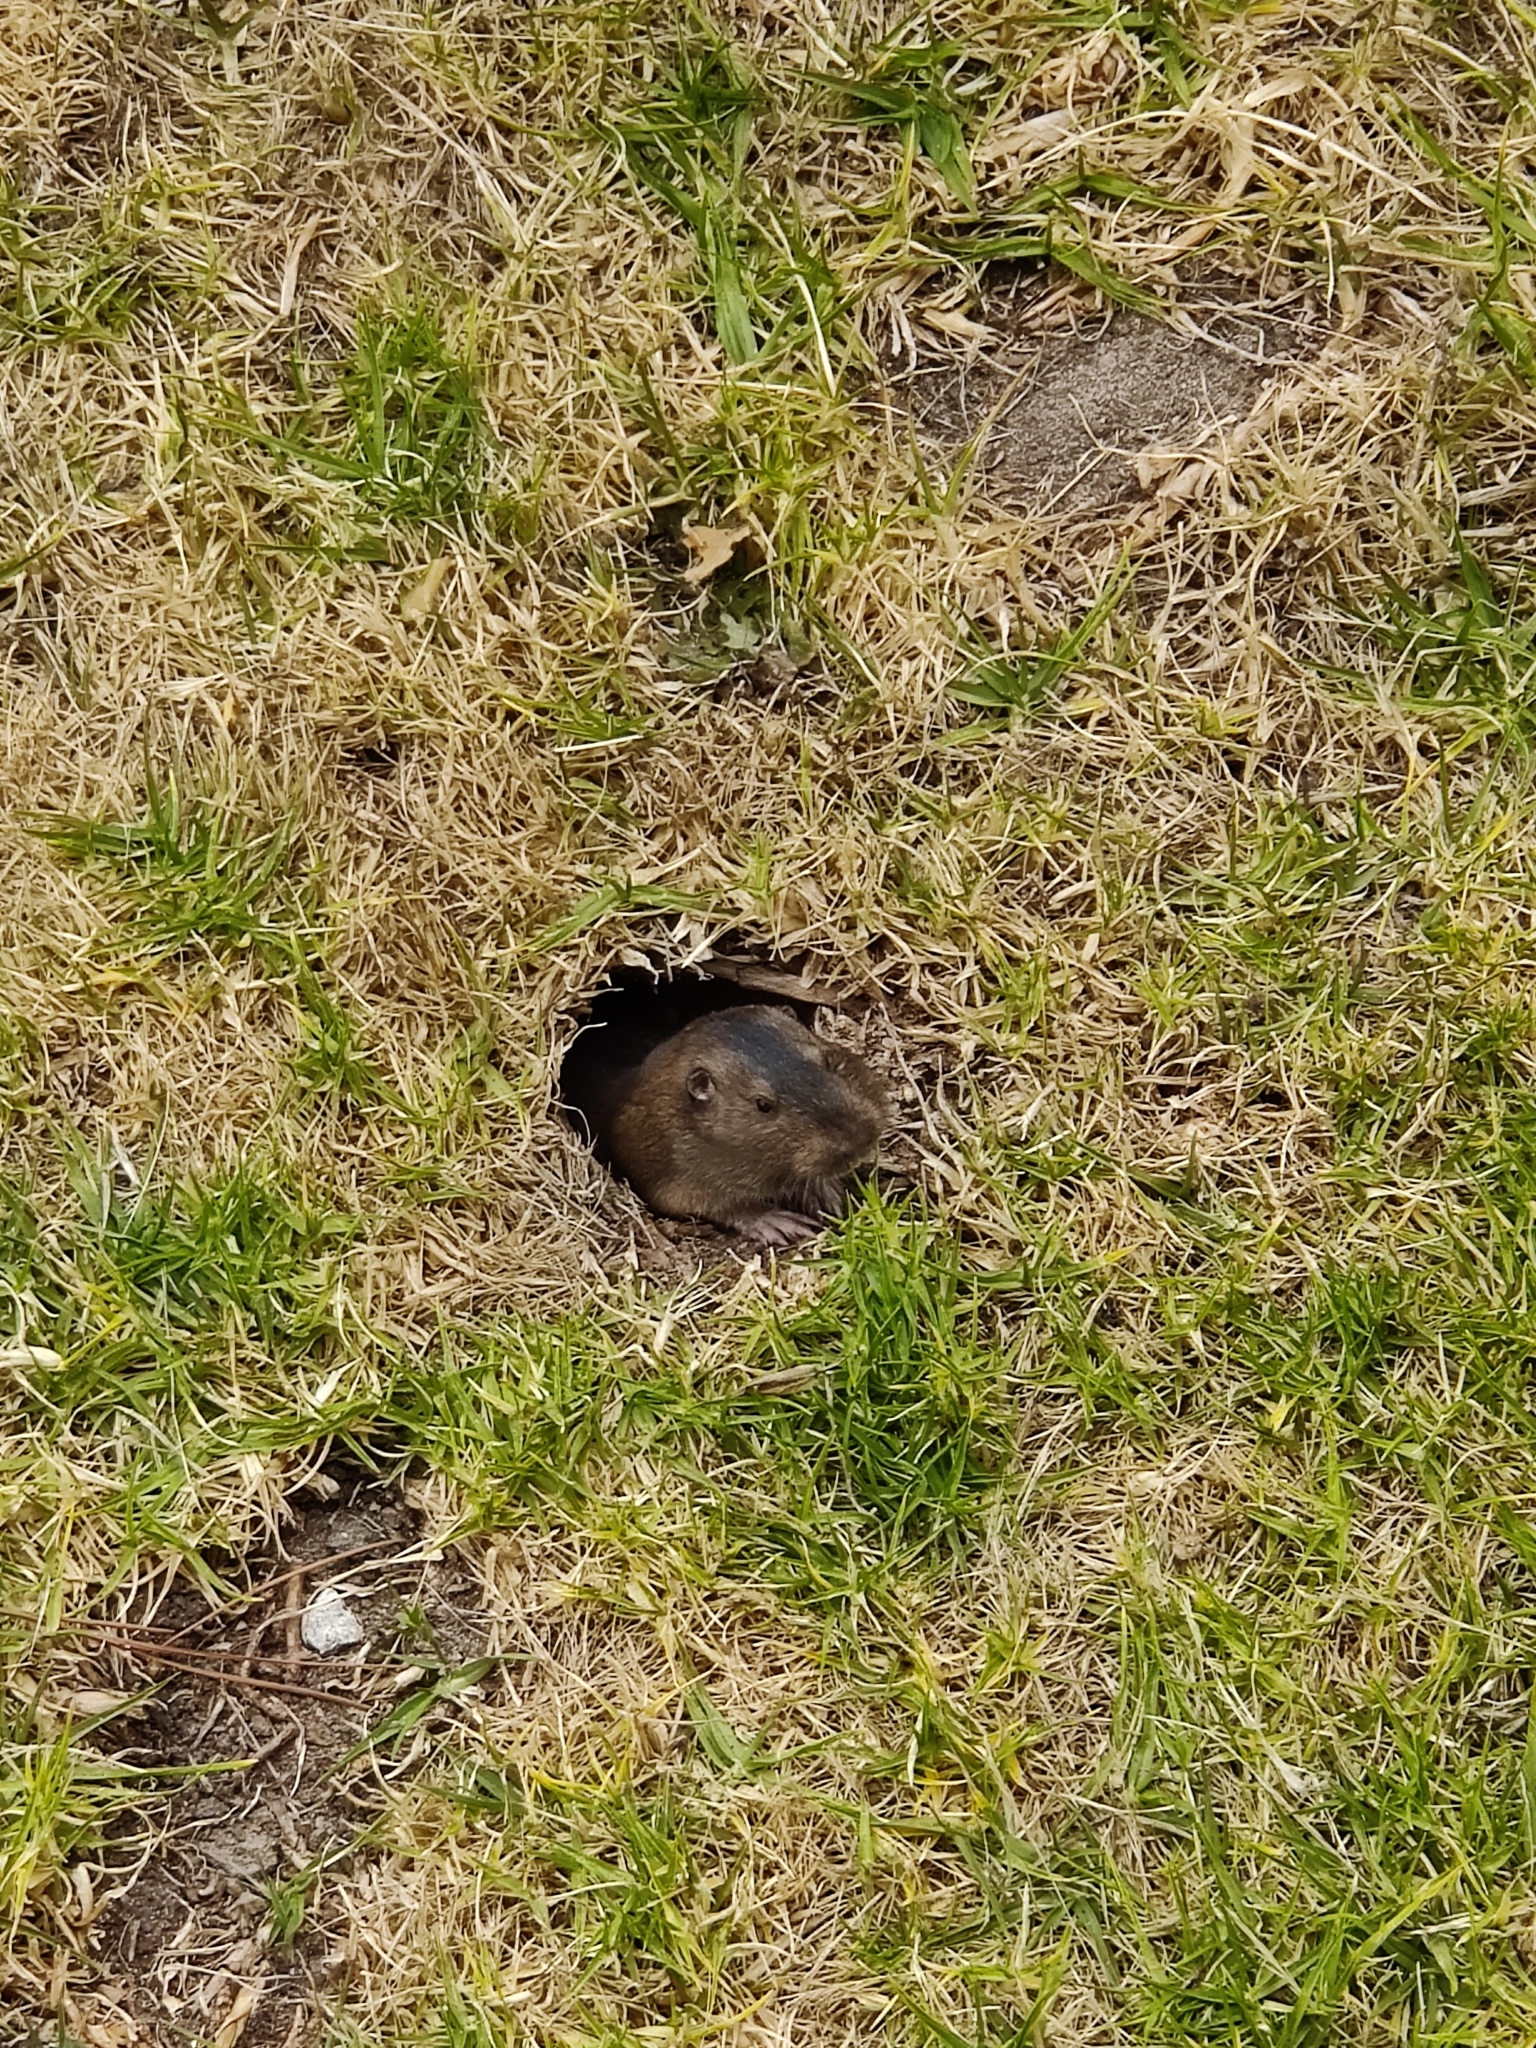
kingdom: Animalia
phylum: Chordata
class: Mammalia
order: Rodentia
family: Geomyidae
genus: Thomomys
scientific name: Thomomys bottae
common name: Botta's pocket gopher
